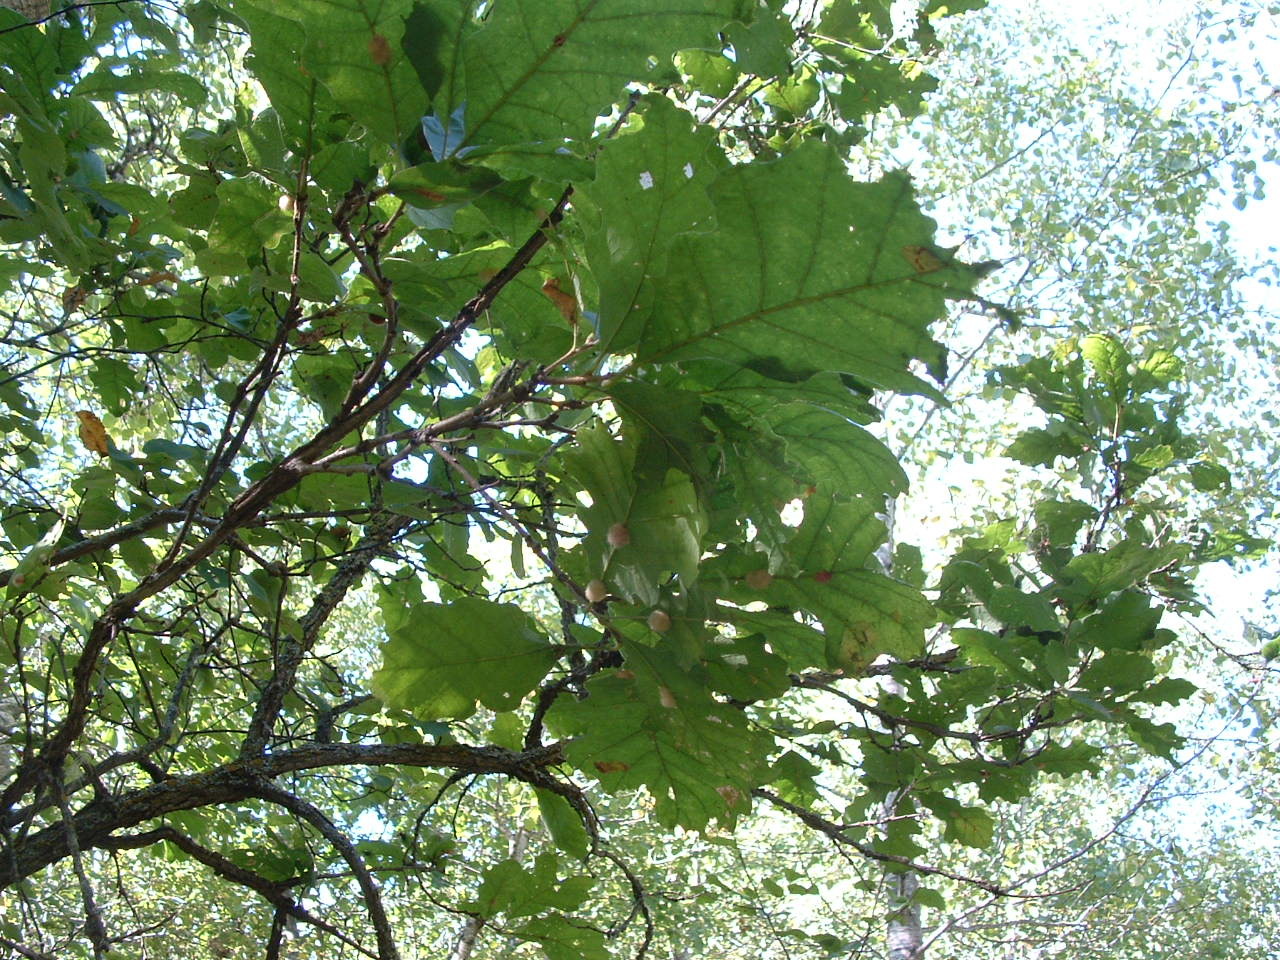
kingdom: Plantae
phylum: Tracheophyta
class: Magnoliopsida
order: Fagales
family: Fagaceae
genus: Quercus
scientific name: Quercus macrocarpa
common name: Bur oak
